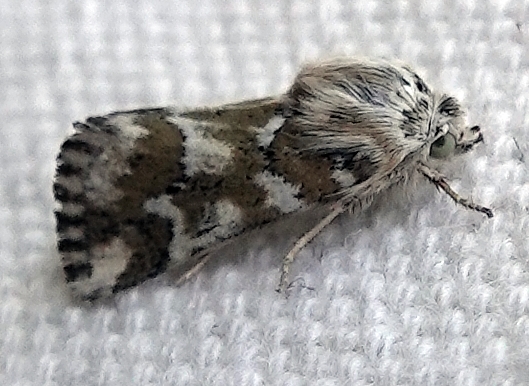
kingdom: Animalia
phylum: Arthropoda
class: Insecta
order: Lepidoptera
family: Noctuidae
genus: Schinia
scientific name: Schinia meadi
